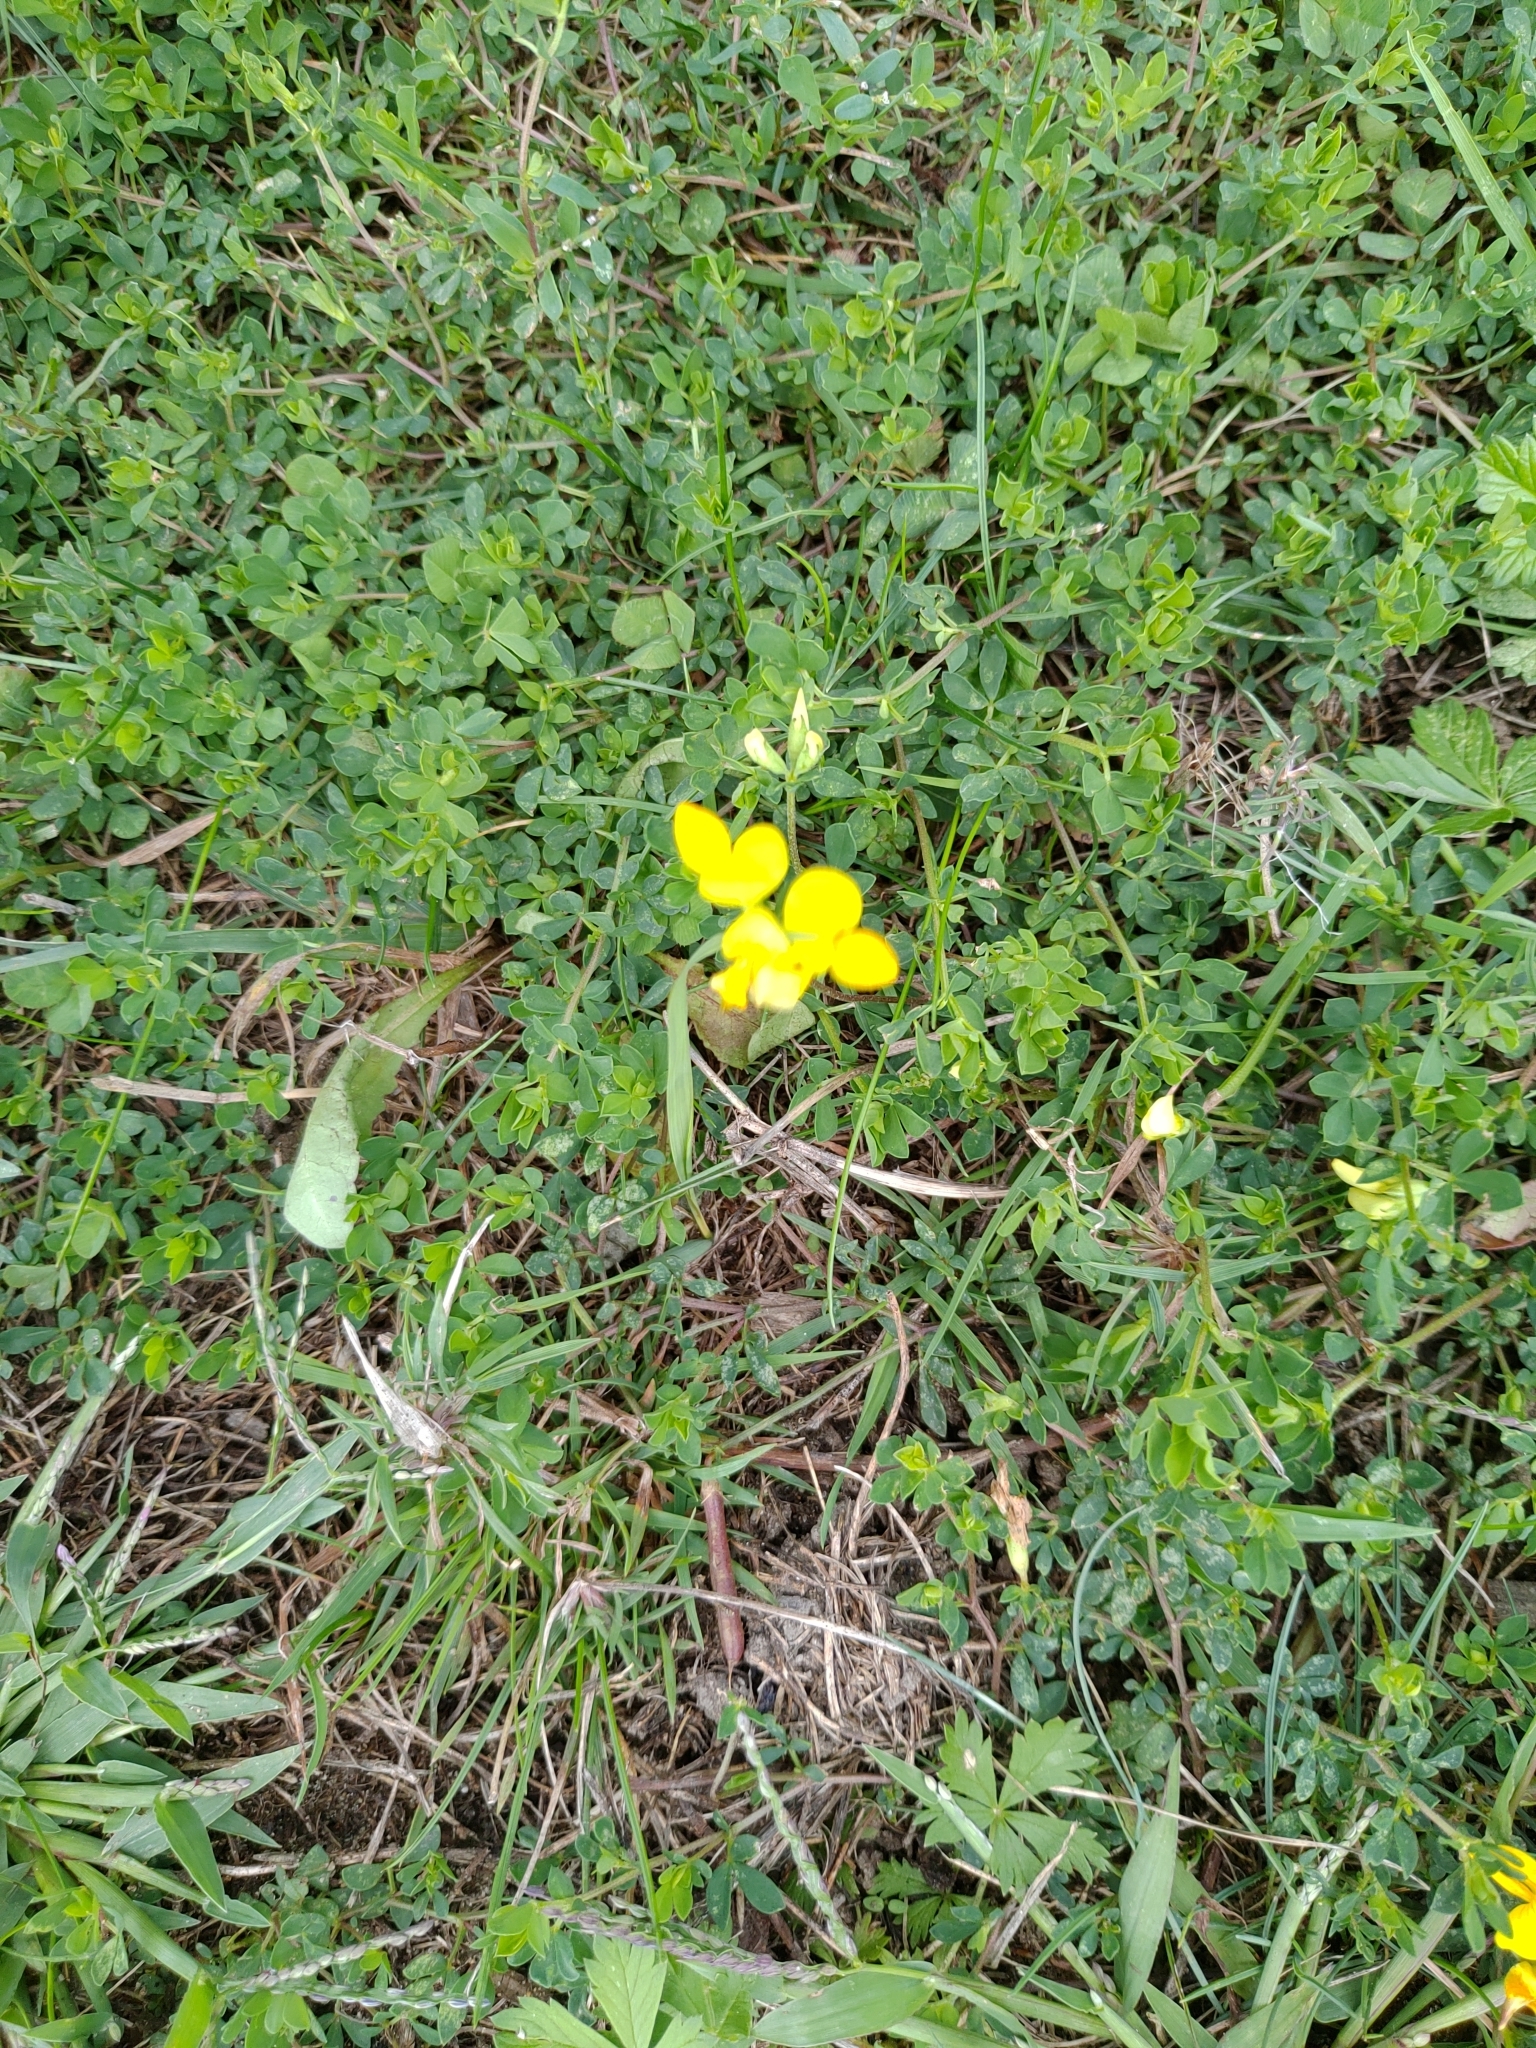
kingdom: Plantae
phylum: Tracheophyta
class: Magnoliopsida
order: Fabales
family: Fabaceae
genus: Lotus
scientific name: Lotus corniculatus
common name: Common bird's-foot-trefoil
